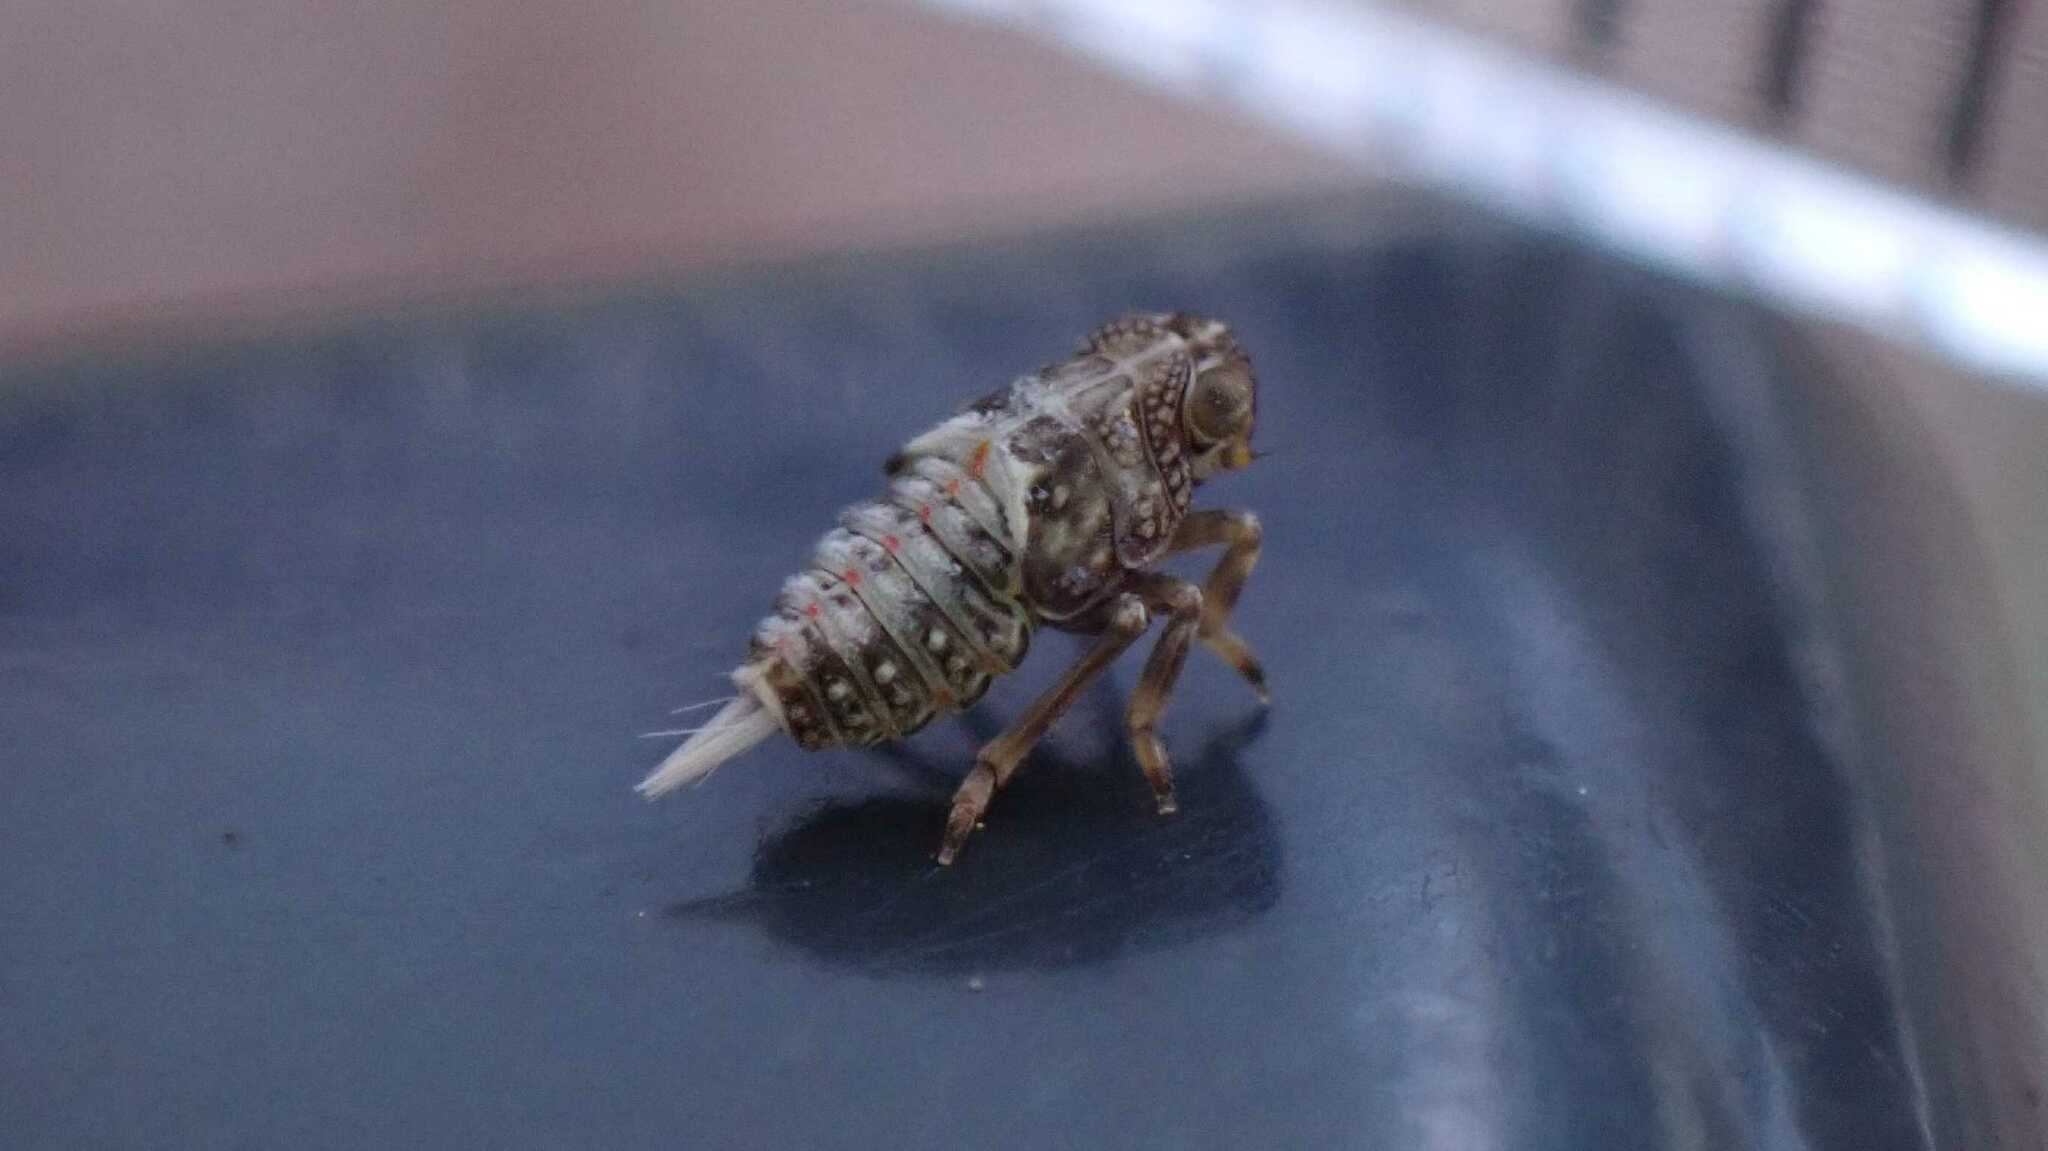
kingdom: Animalia
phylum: Arthropoda
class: Insecta
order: Hemiptera
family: Issidae
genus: Issus
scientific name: Issus coleoptratus
